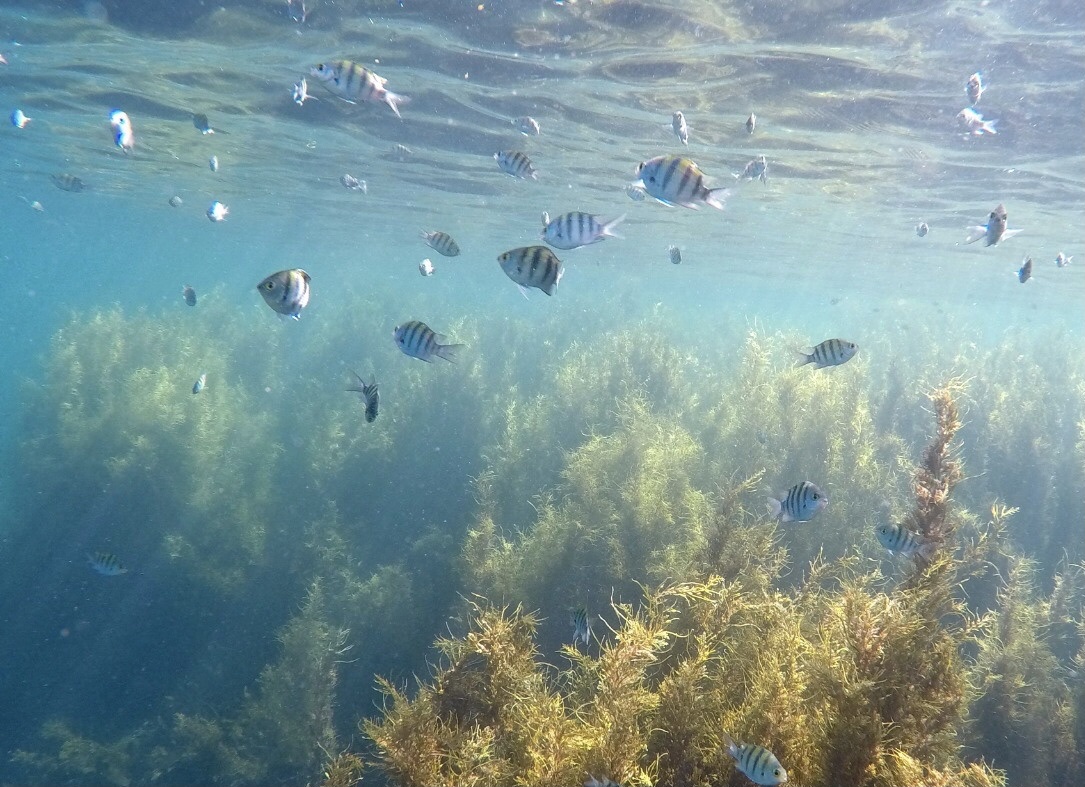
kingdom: Animalia
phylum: Chordata
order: Perciformes
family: Pomacentridae
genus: Abudefduf
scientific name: Abudefduf vaigiensis
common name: Indo-pacific sergeant
